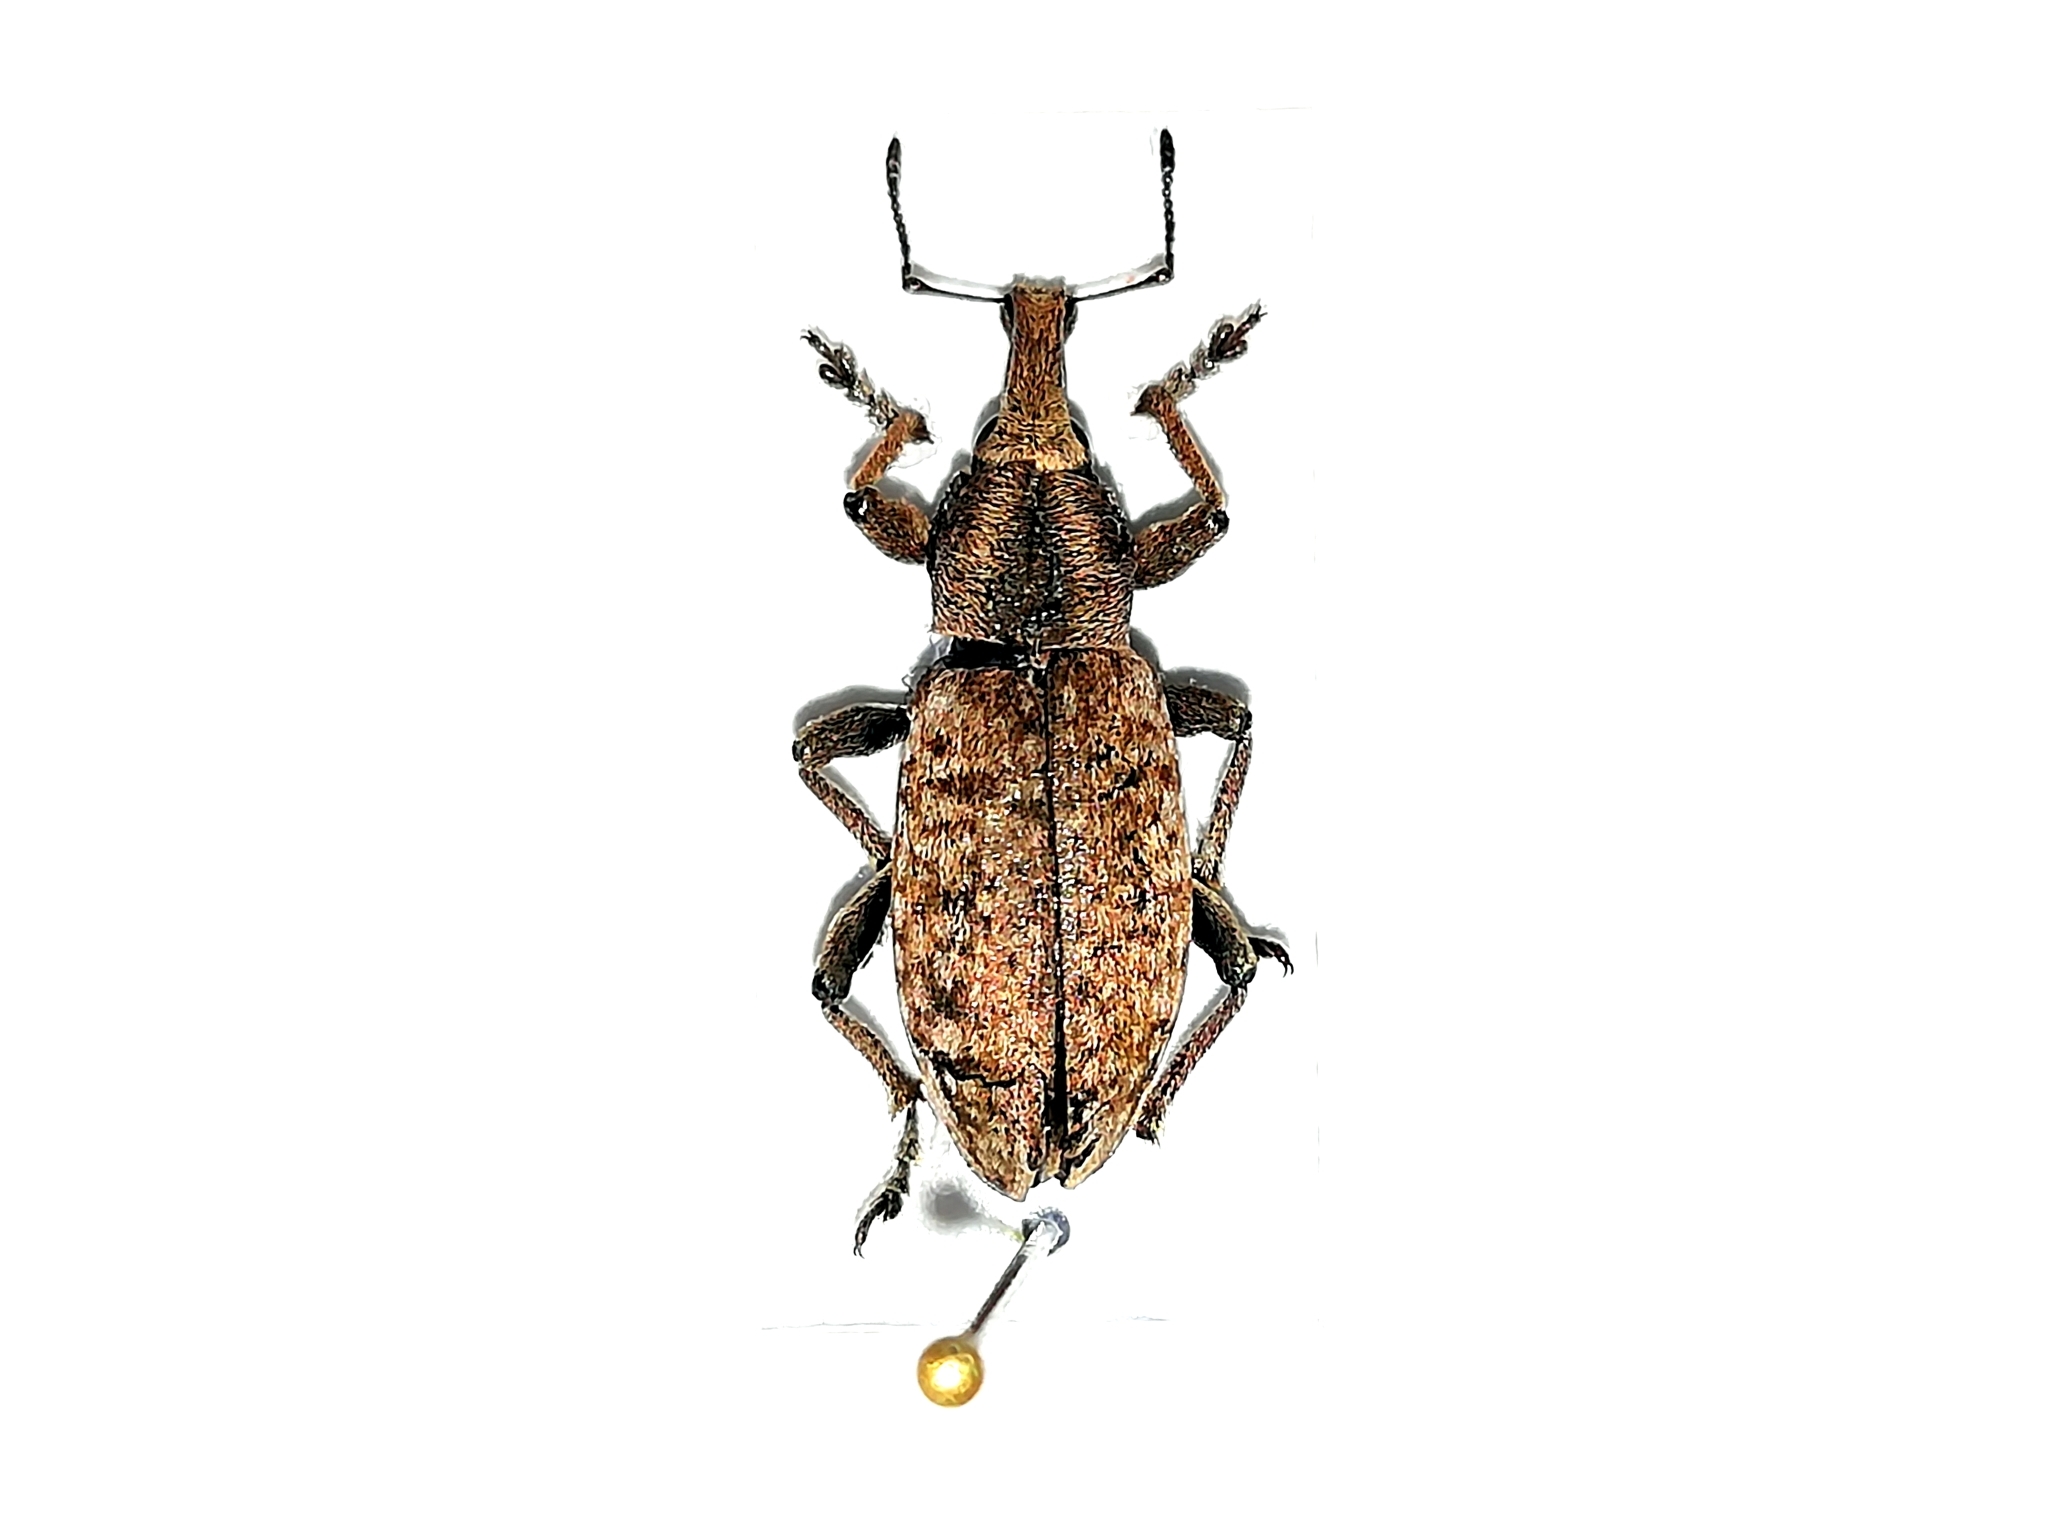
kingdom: Animalia
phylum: Arthropoda
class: Insecta
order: Coleoptera
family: Curculionidae
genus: Trichalophus
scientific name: Trichalophus boeberi
